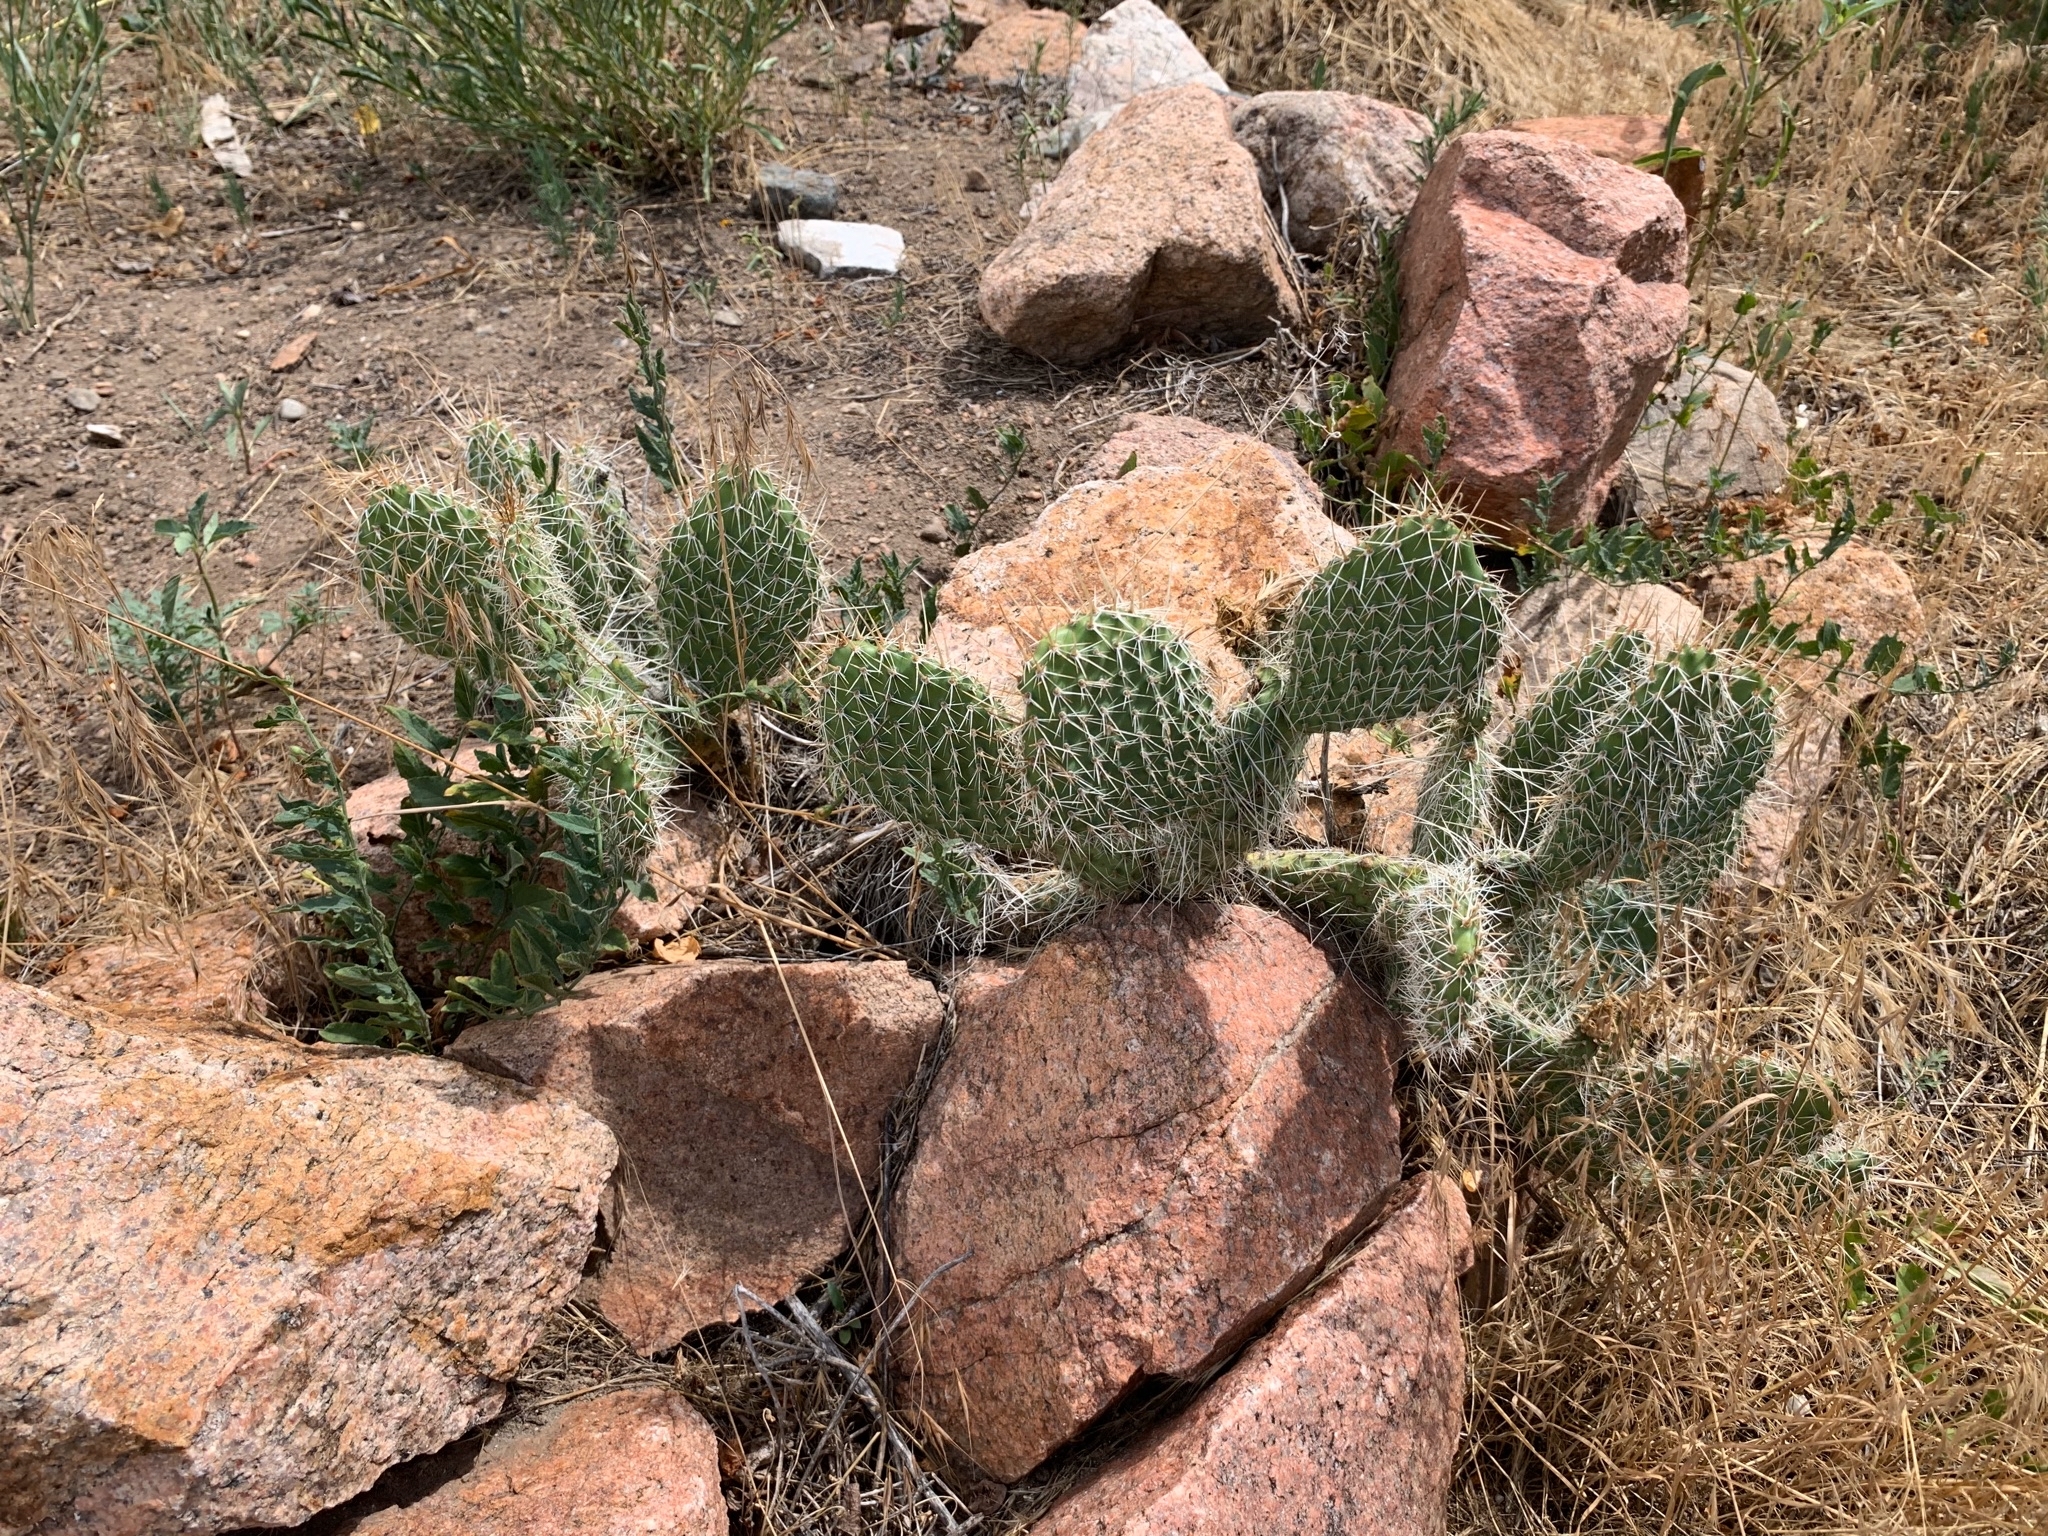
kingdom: Plantae
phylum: Tracheophyta
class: Magnoliopsida
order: Caryophyllales
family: Cactaceae
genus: Opuntia
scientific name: Opuntia polyacantha
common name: Plains prickly-pear
